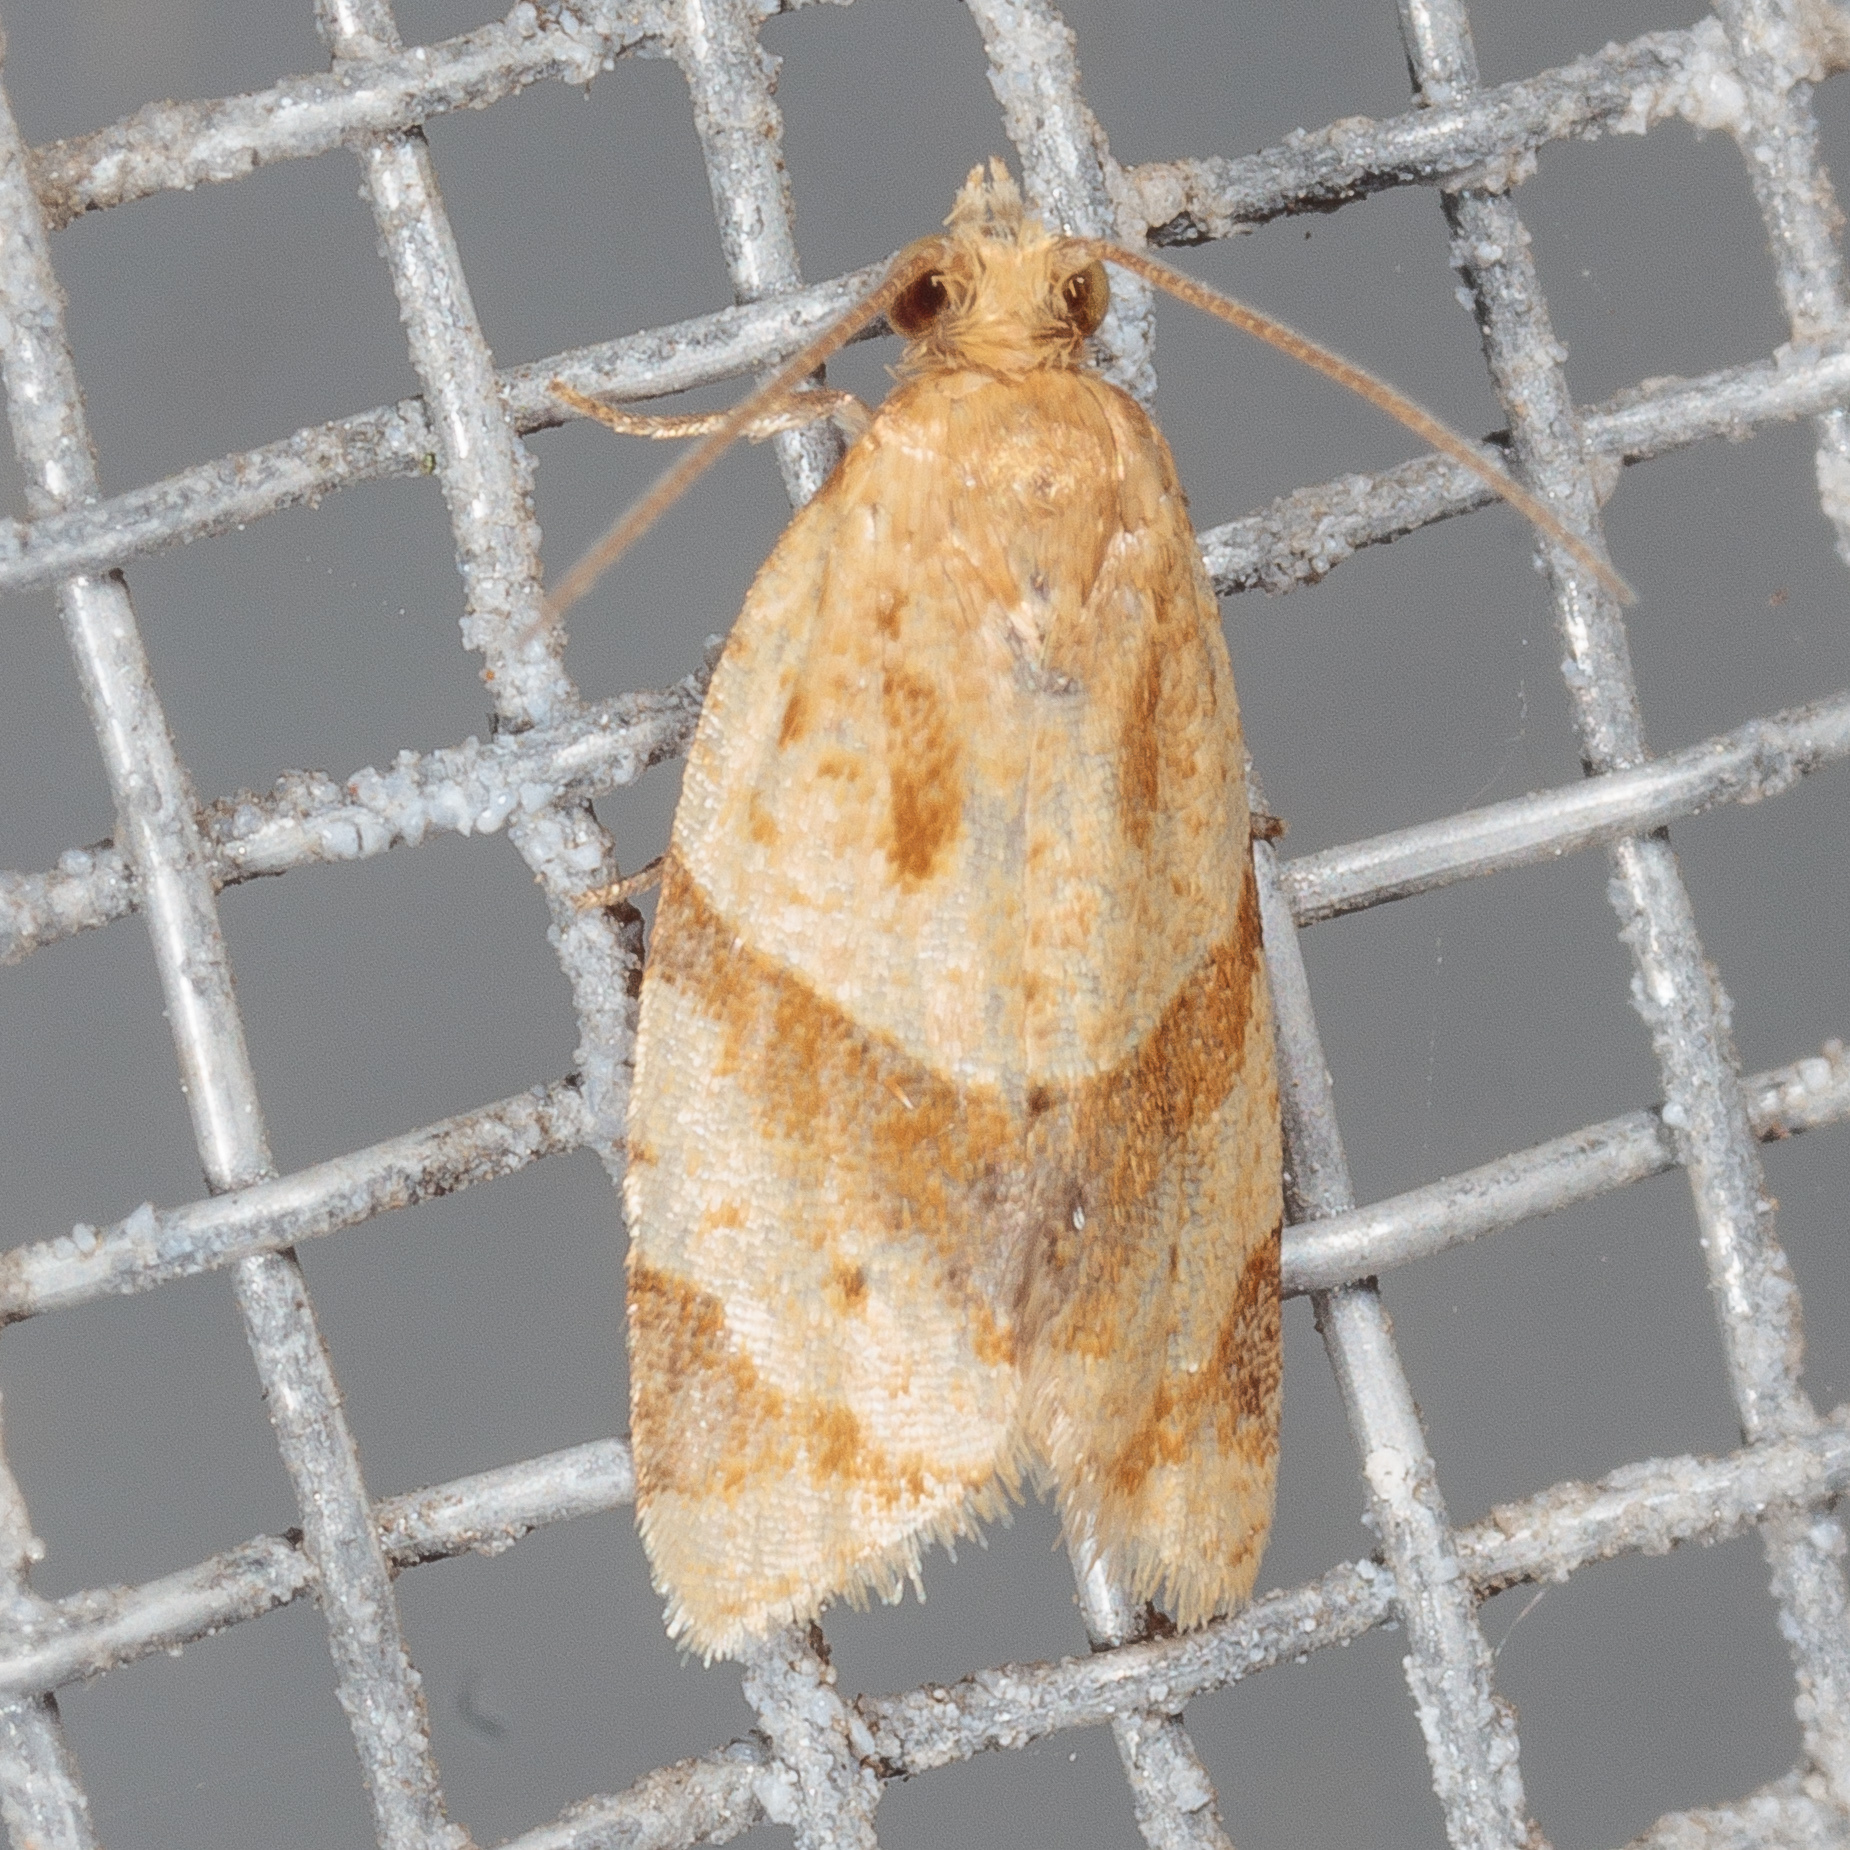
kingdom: Animalia
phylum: Arthropoda
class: Insecta
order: Lepidoptera
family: Tortricidae
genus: Clepsis
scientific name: Clepsis peritana
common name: Garden tortrix
